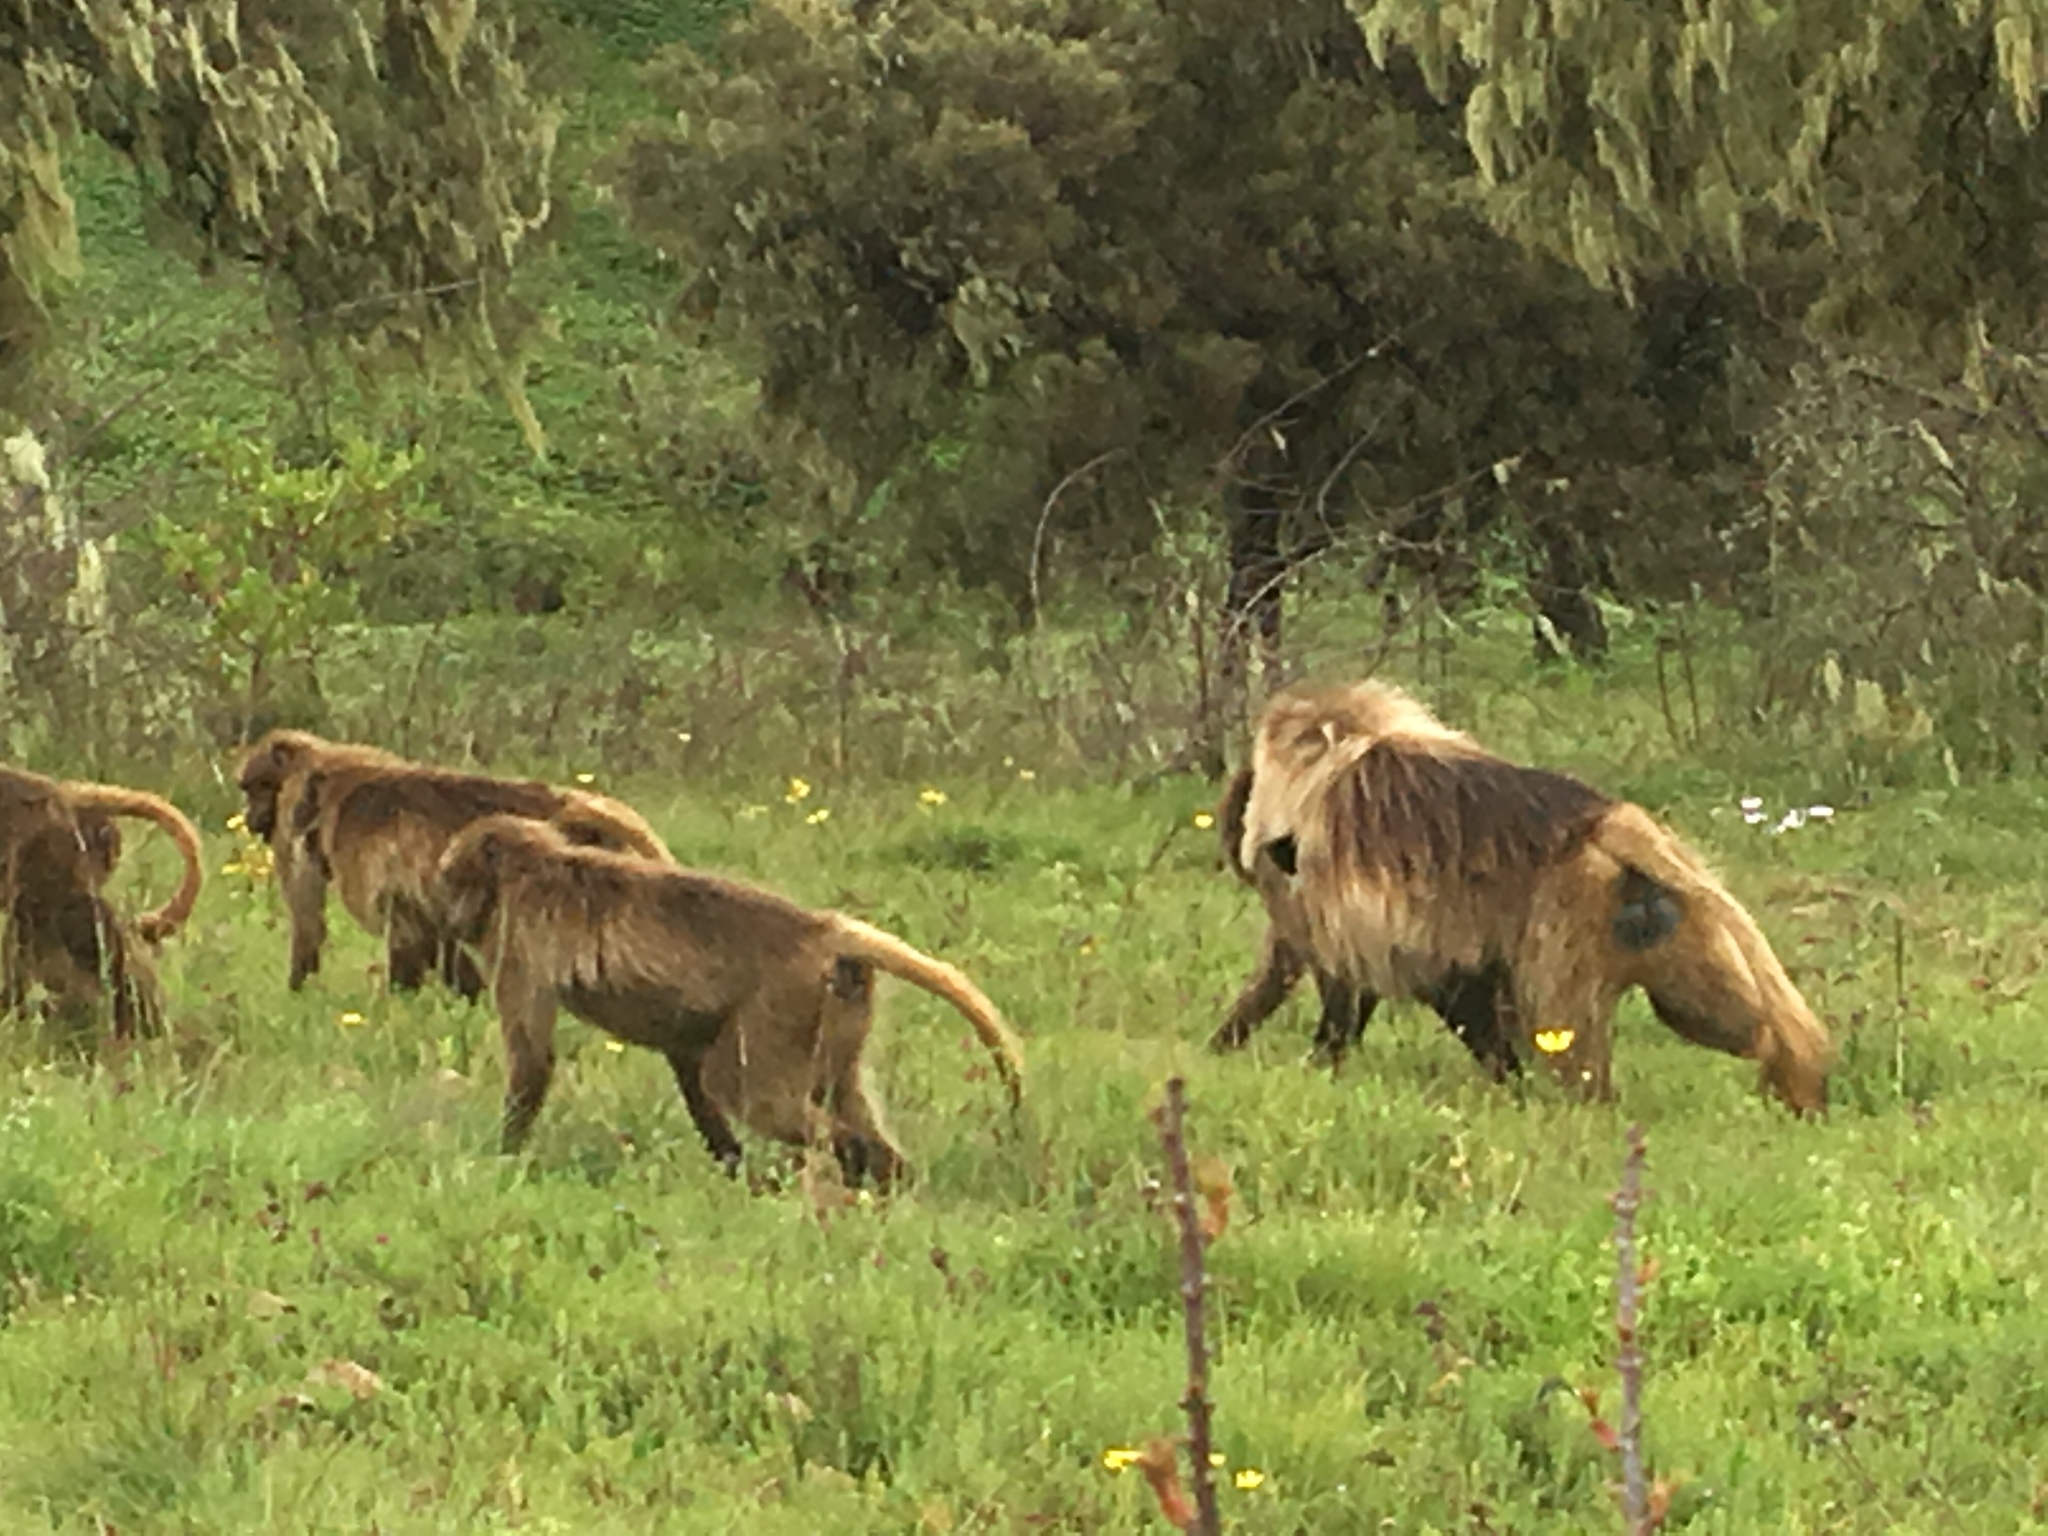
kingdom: Animalia
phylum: Chordata
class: Mammalia
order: Primates
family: Cercopithecidae
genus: Theropithecus
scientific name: Theropithecus gelada
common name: Gelada
